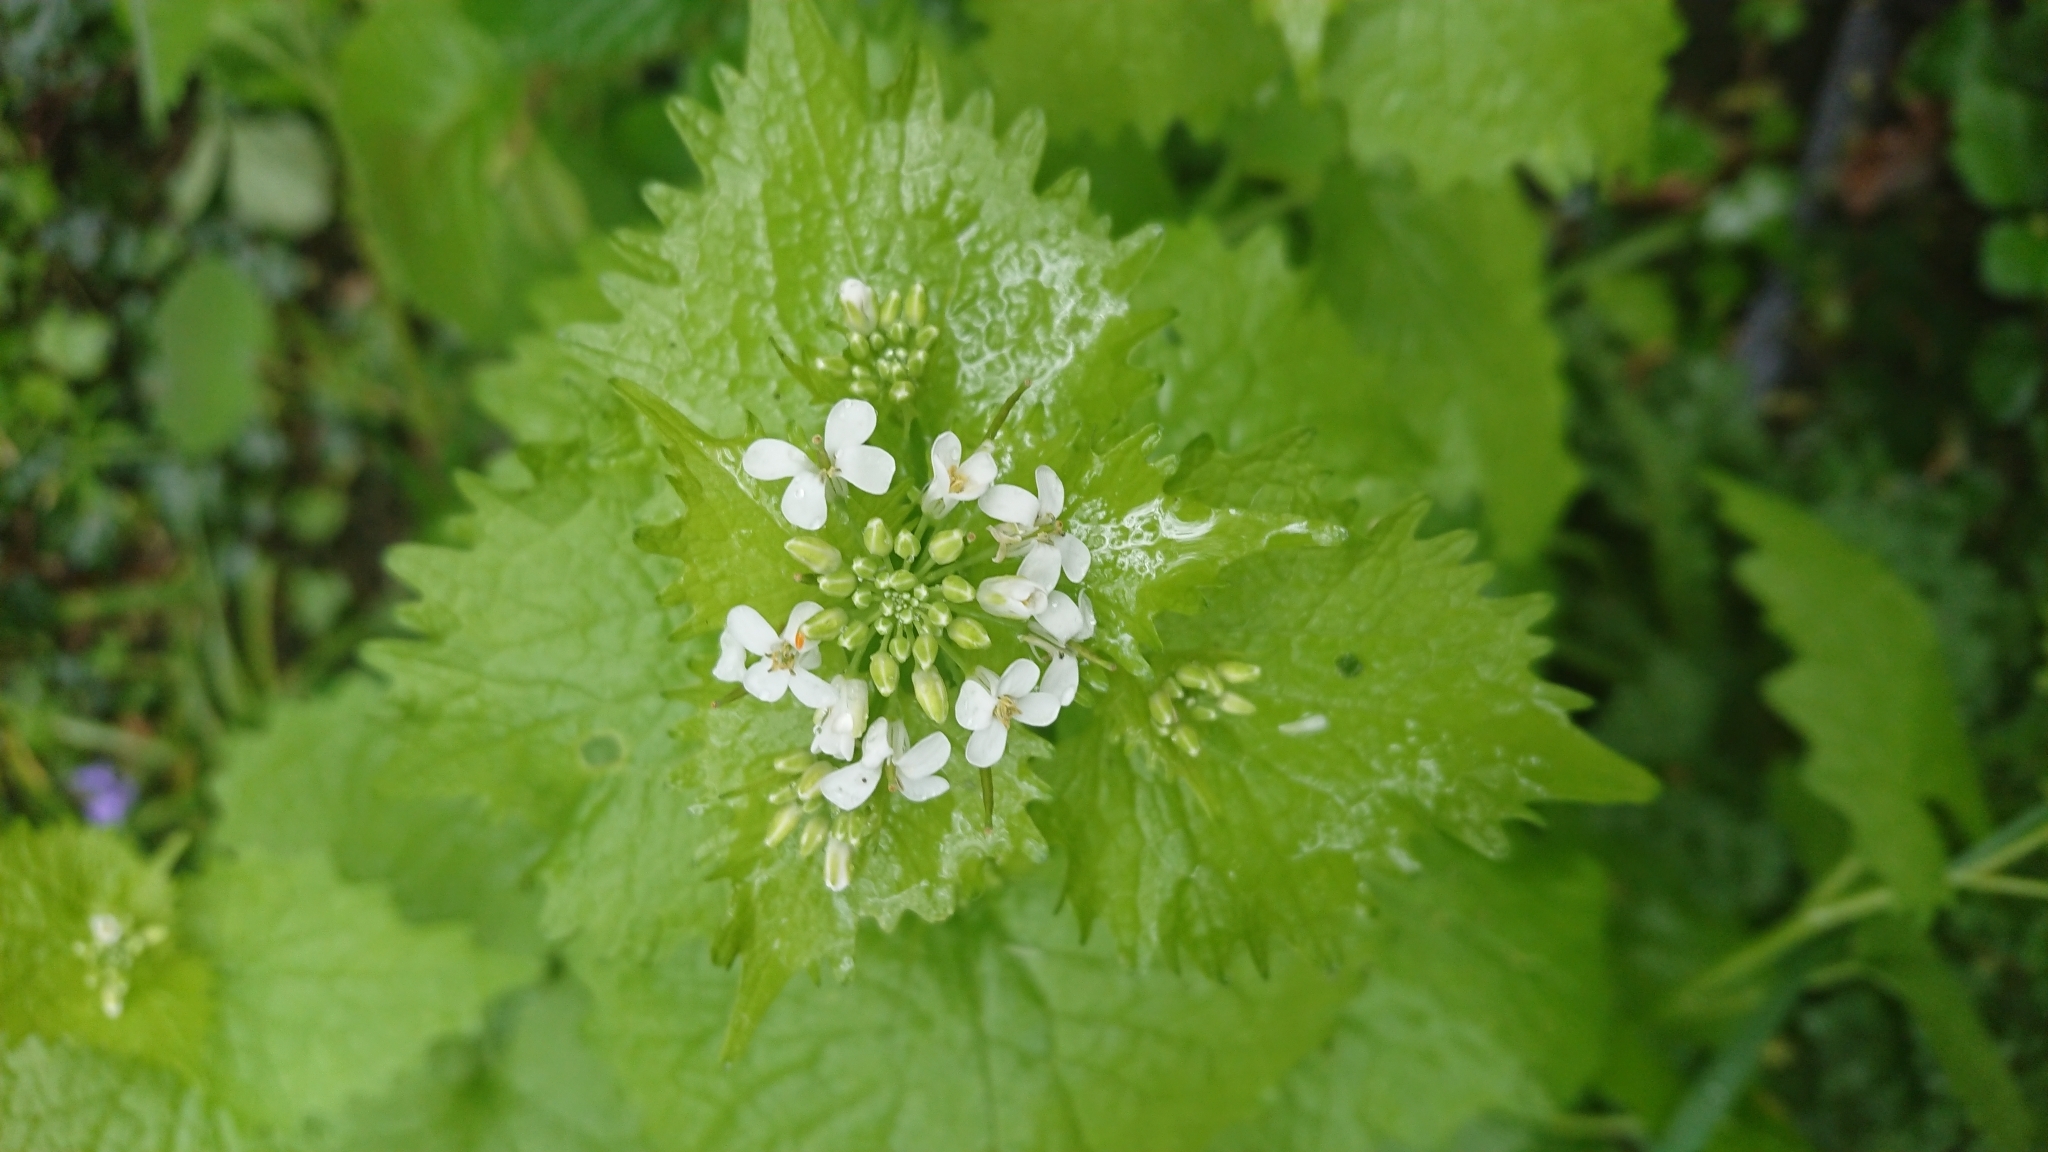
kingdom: Plantae
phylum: Tracheophyta
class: Magnoliopsida
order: Brassicales
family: Brassicaceae
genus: Alliaria
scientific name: Alliaria petiolata
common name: Garlic mustard
